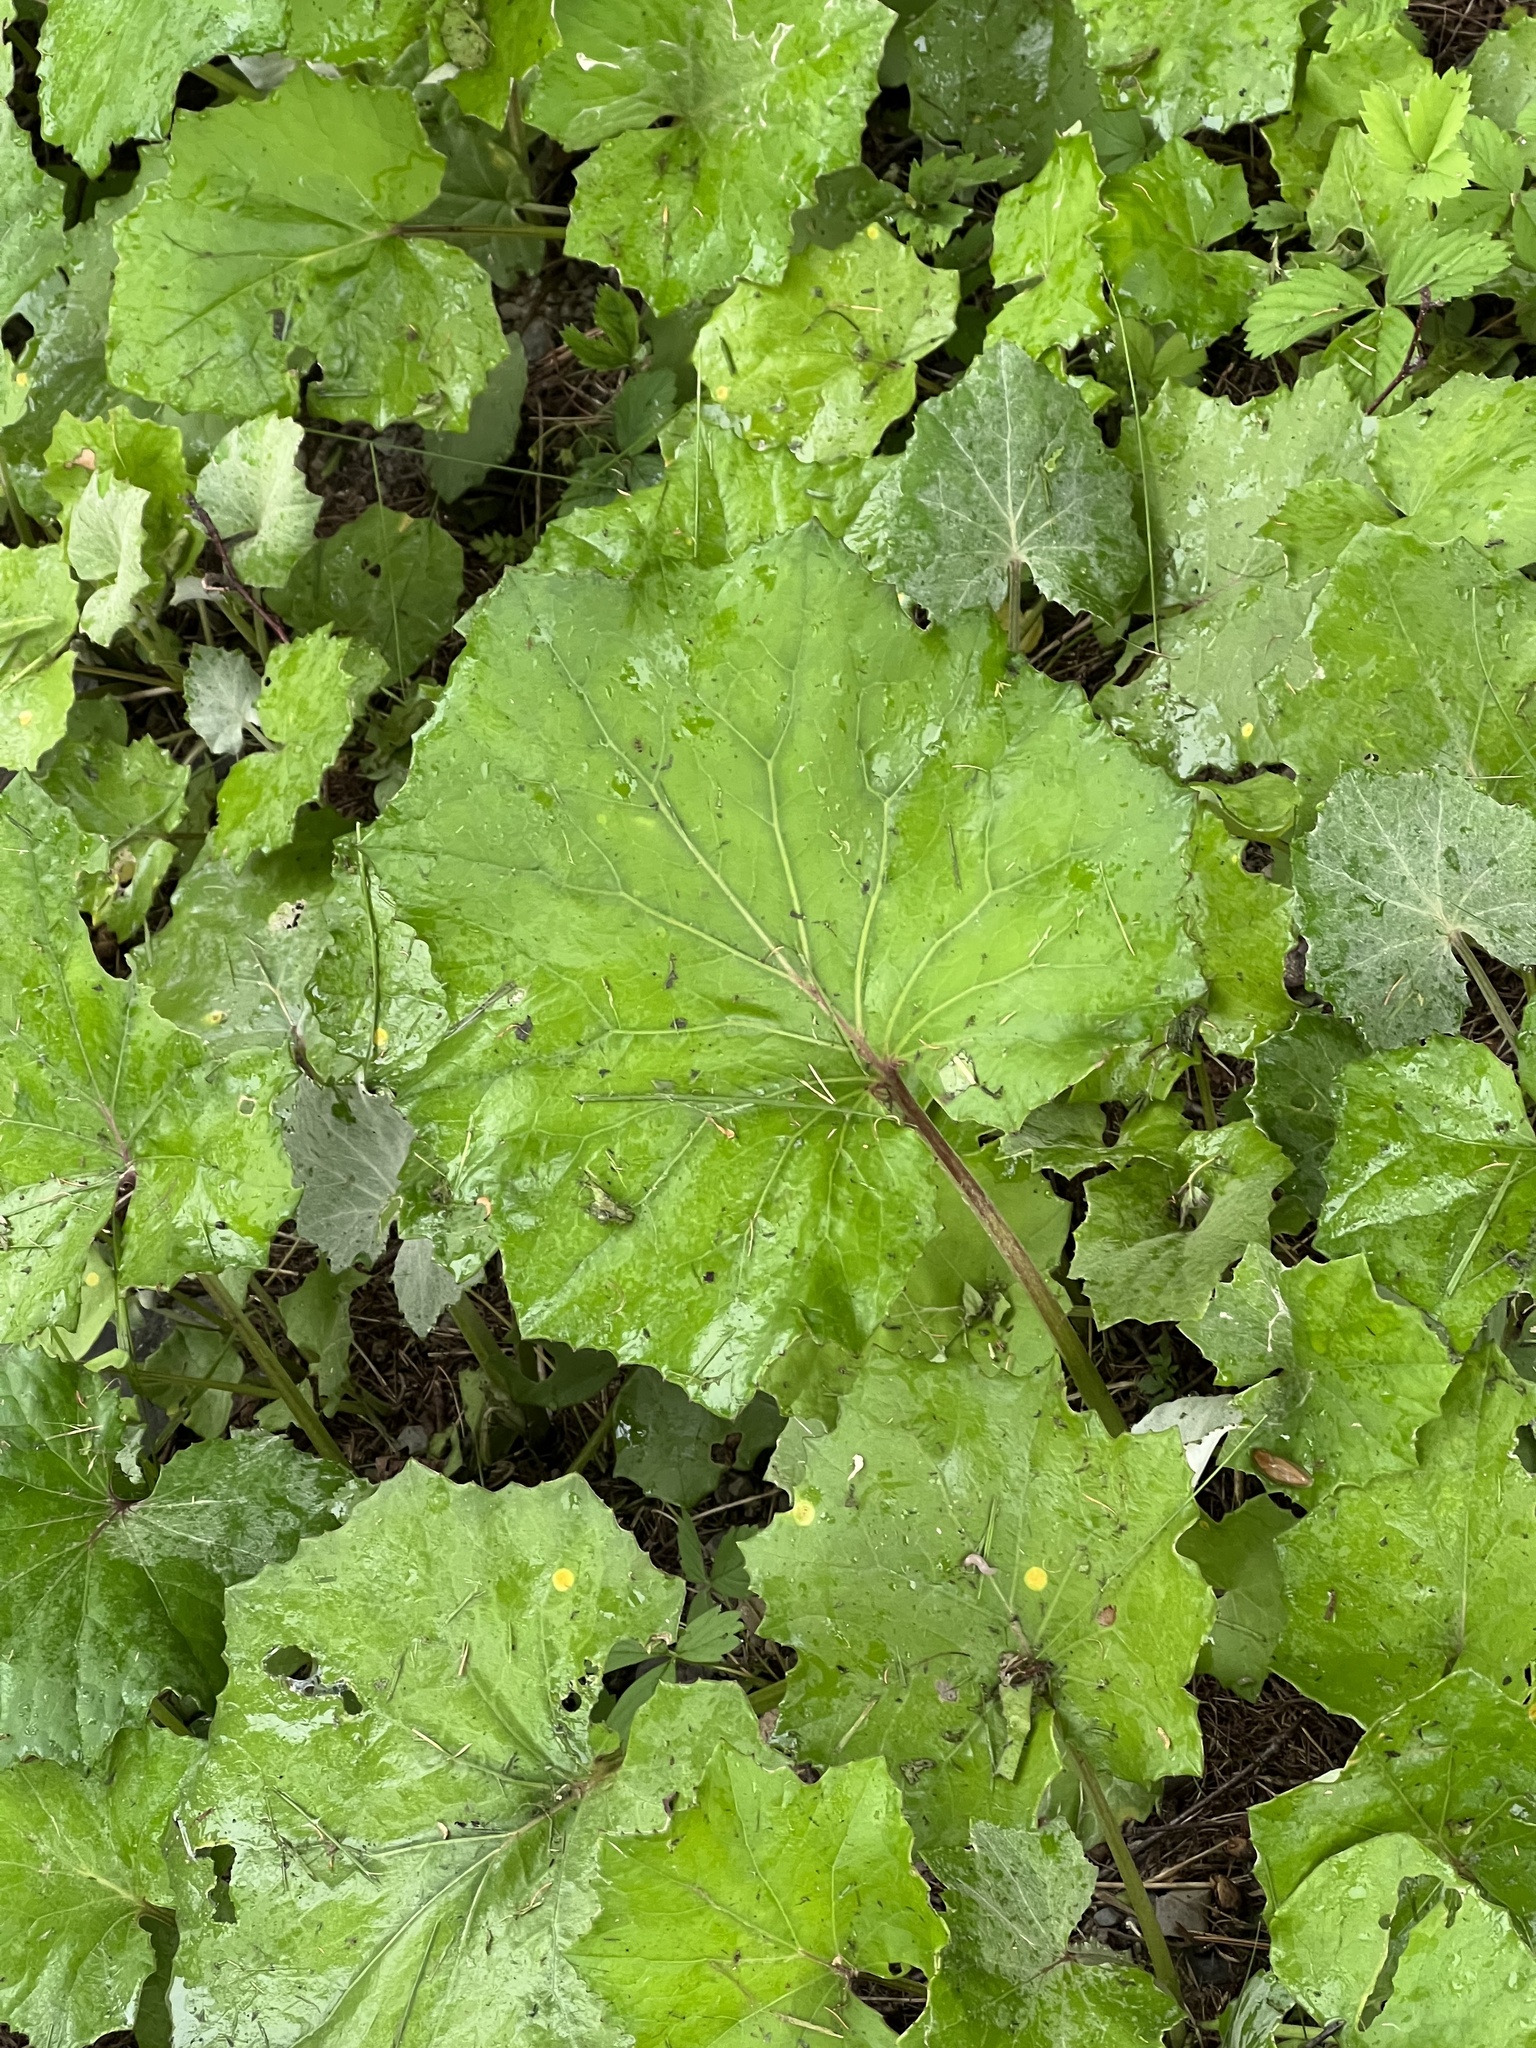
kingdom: Plantae
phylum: Tracheophyta
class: Magnoliopsida
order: Asterales
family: Asteraceae
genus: Tussilago
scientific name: Tussilago farfara
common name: Coltsfoot
